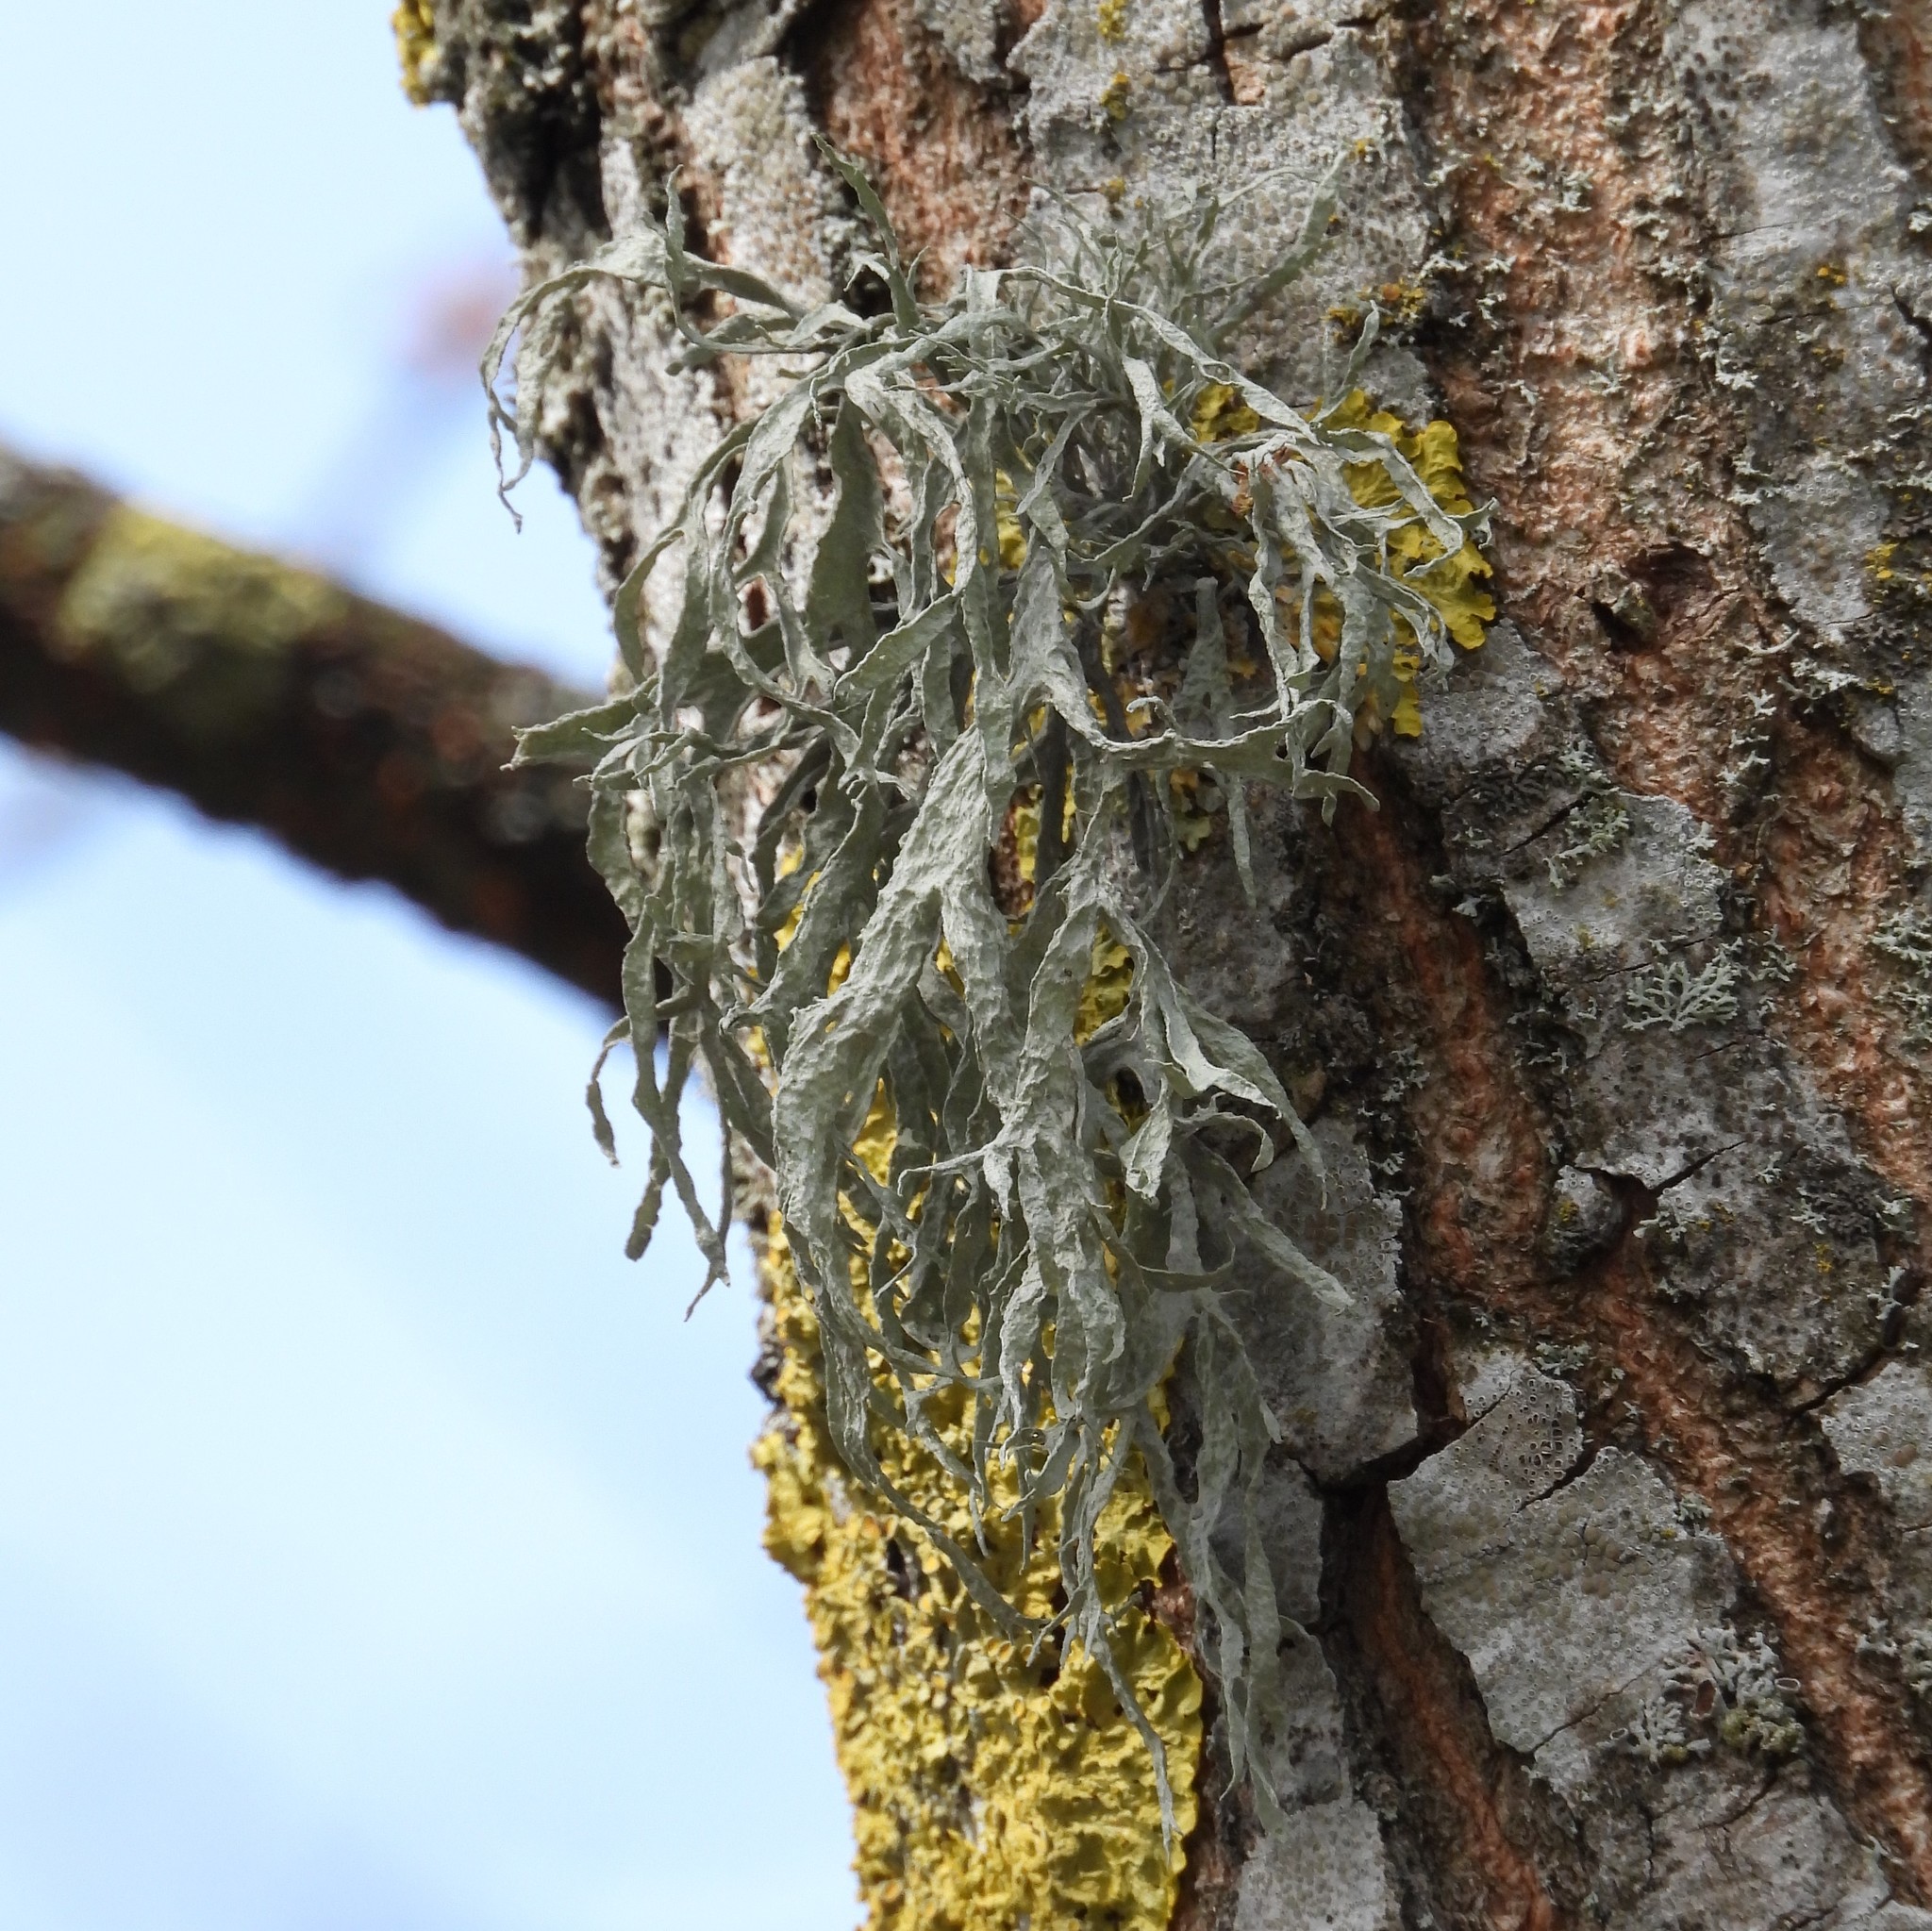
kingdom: Fungi
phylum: Ascomycota
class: Lecanoromycetes
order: Lecanorales
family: Ramalinaceae
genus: Ramalina
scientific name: Ramalina fraxinea
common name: Cartilage lichen
